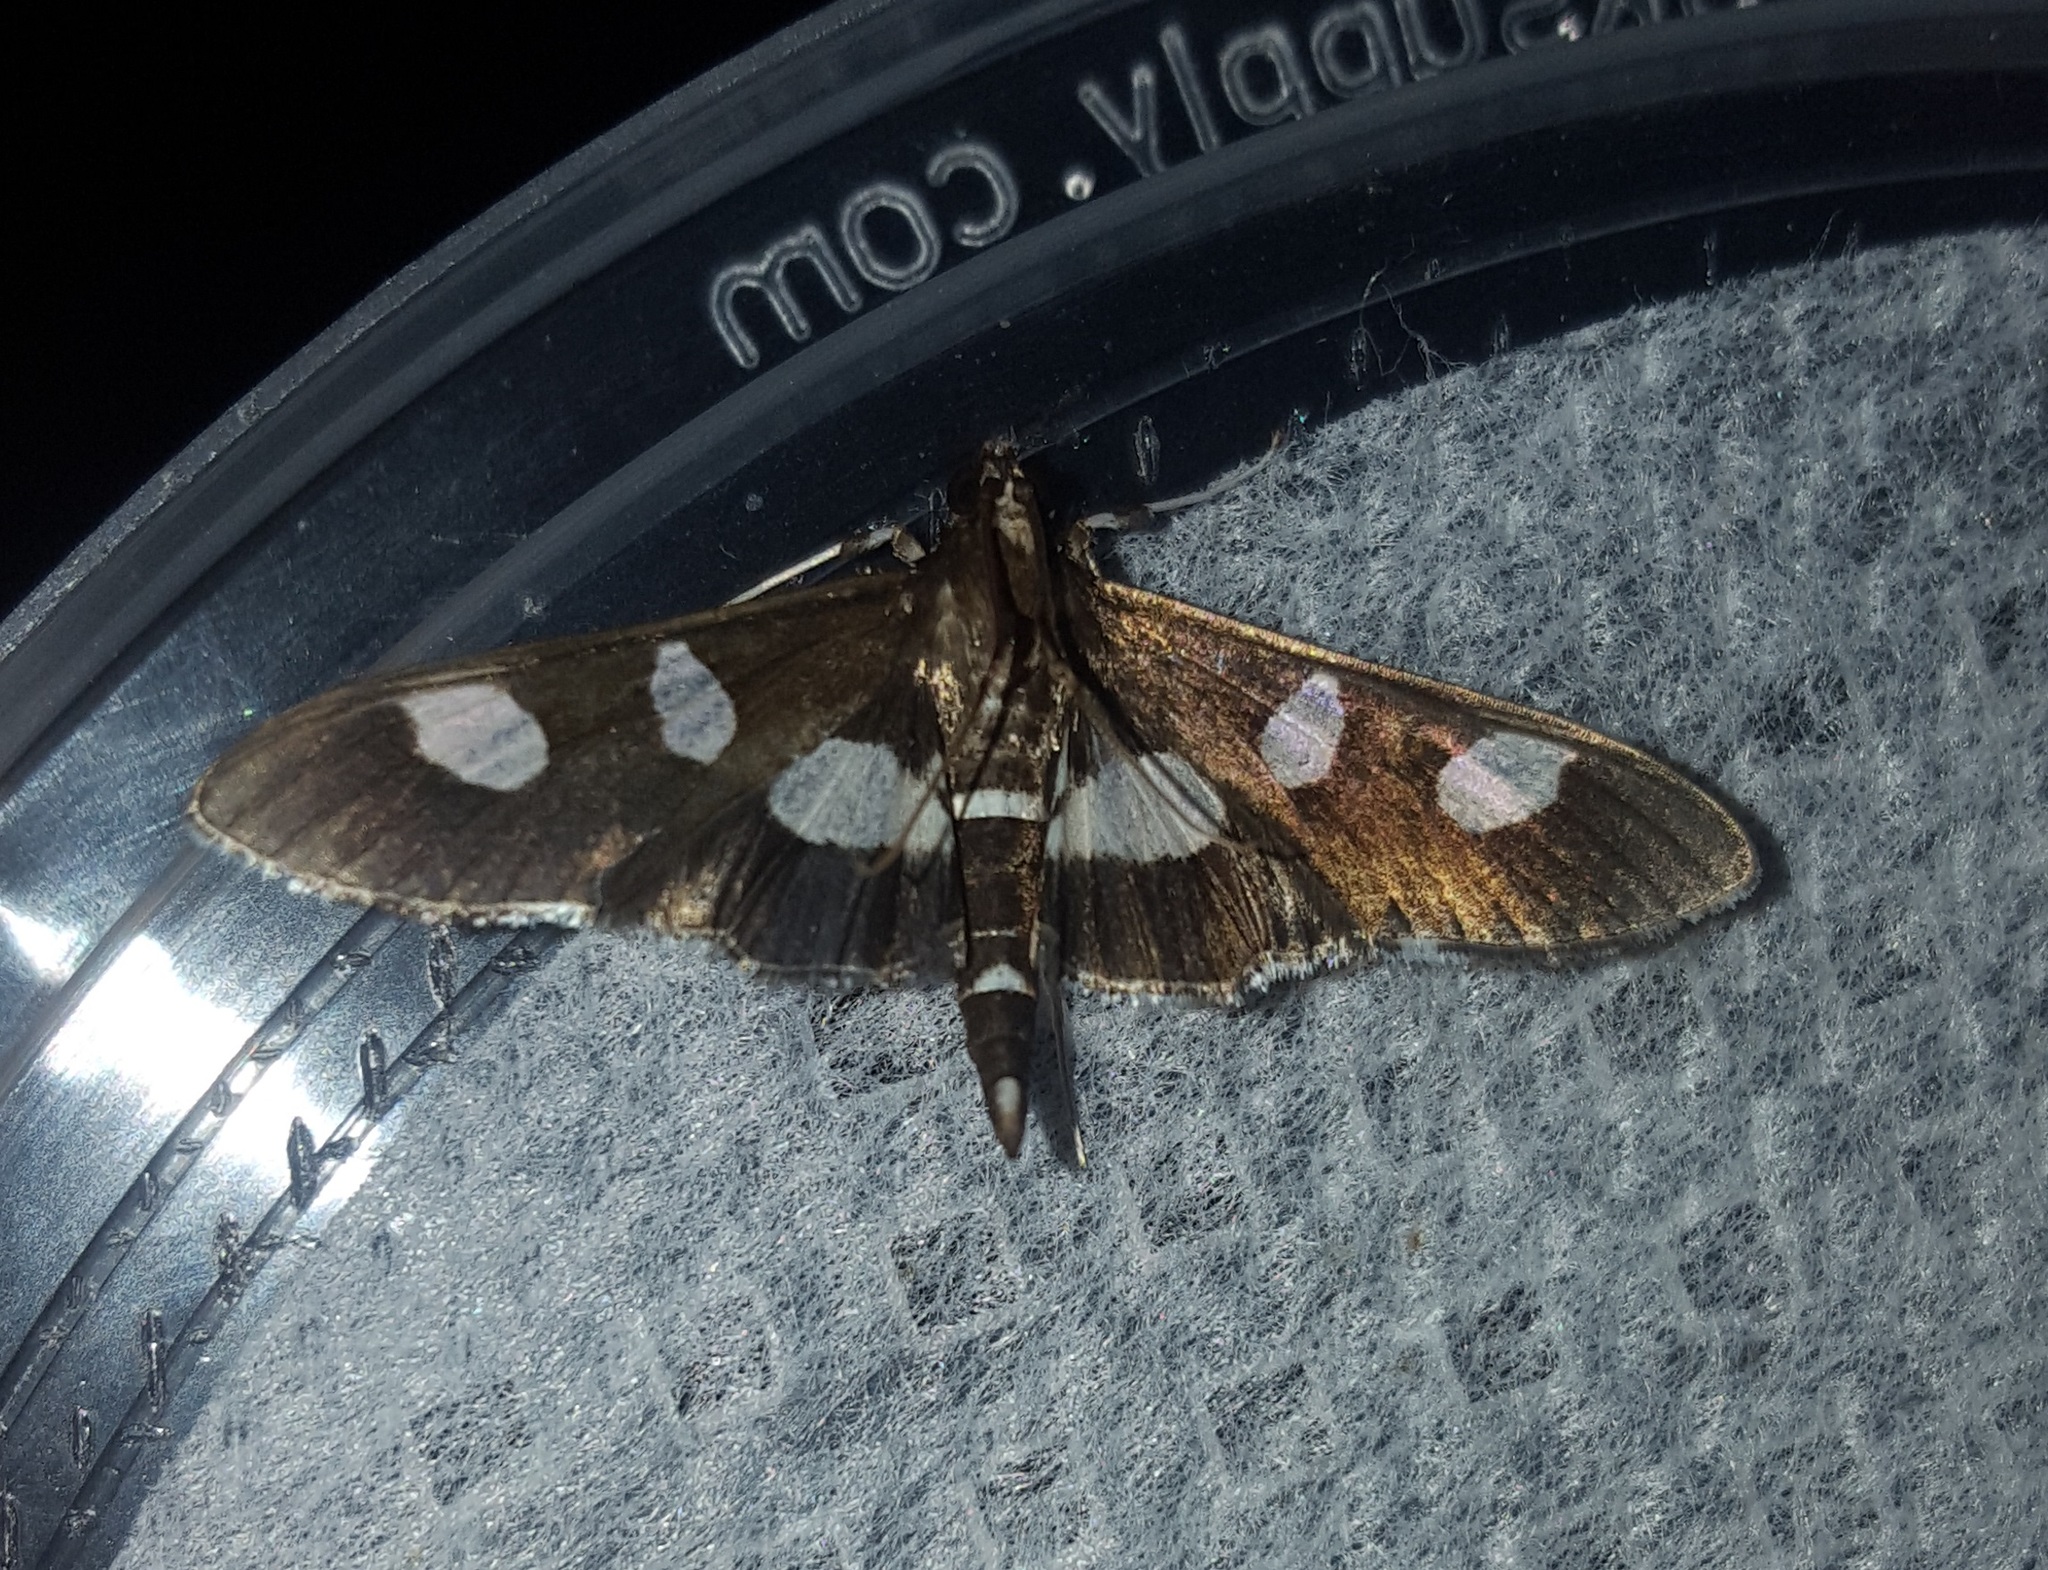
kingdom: Animalia
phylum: Arthropoda
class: Insecta
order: Lepidoptera
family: Crambidae
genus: Desmia
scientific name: Desmia
